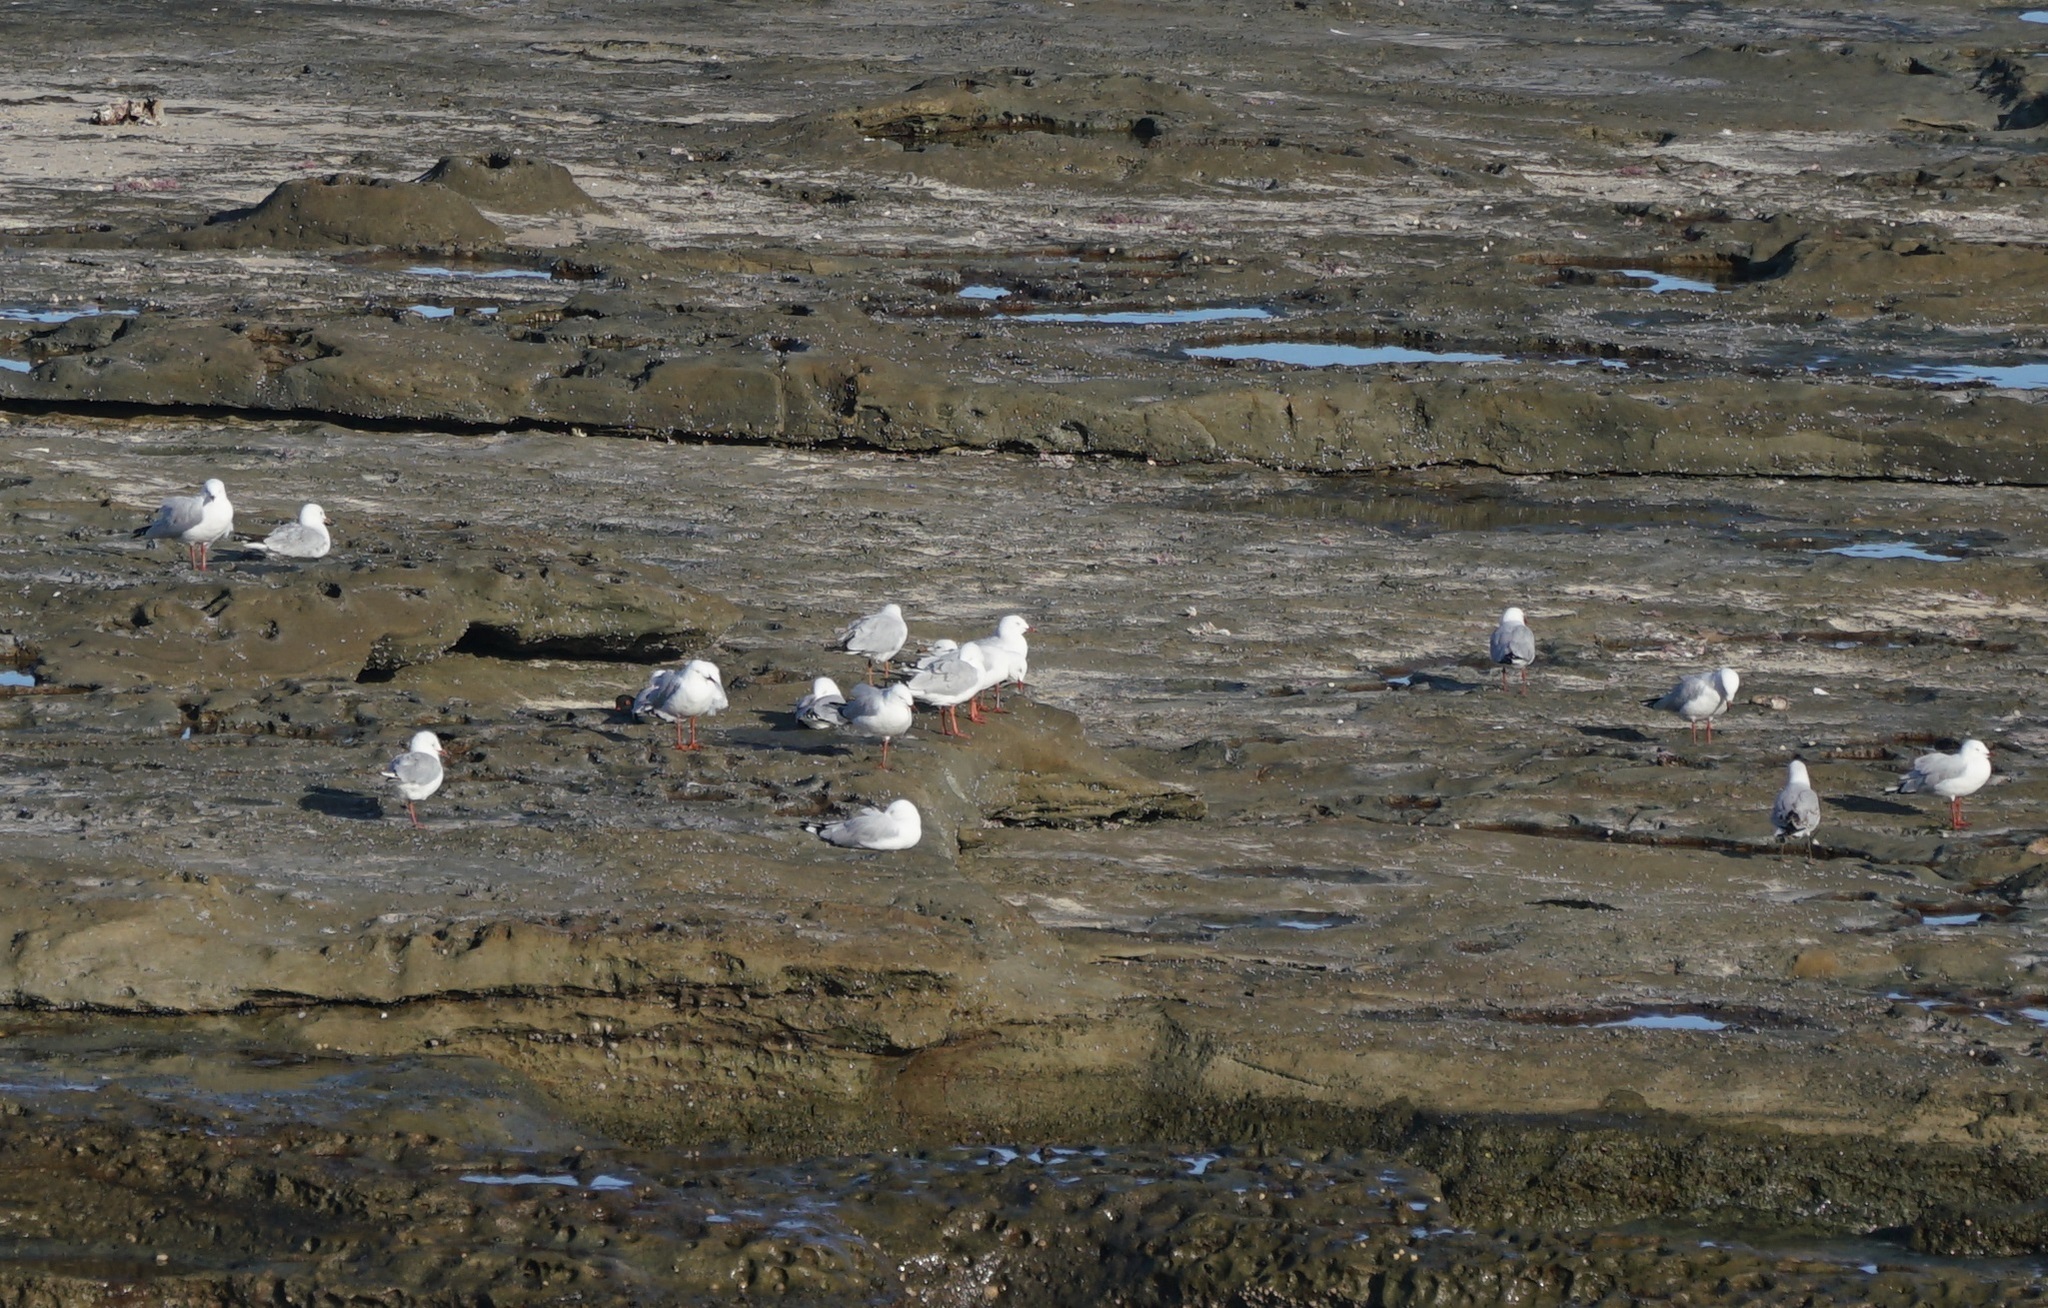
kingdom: Animalia
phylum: Chordata
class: Aves
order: Charadriiformes
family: Laridae
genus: Chroicocephalus
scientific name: Chroicocephalus novaehollandiae
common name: Silver gull
